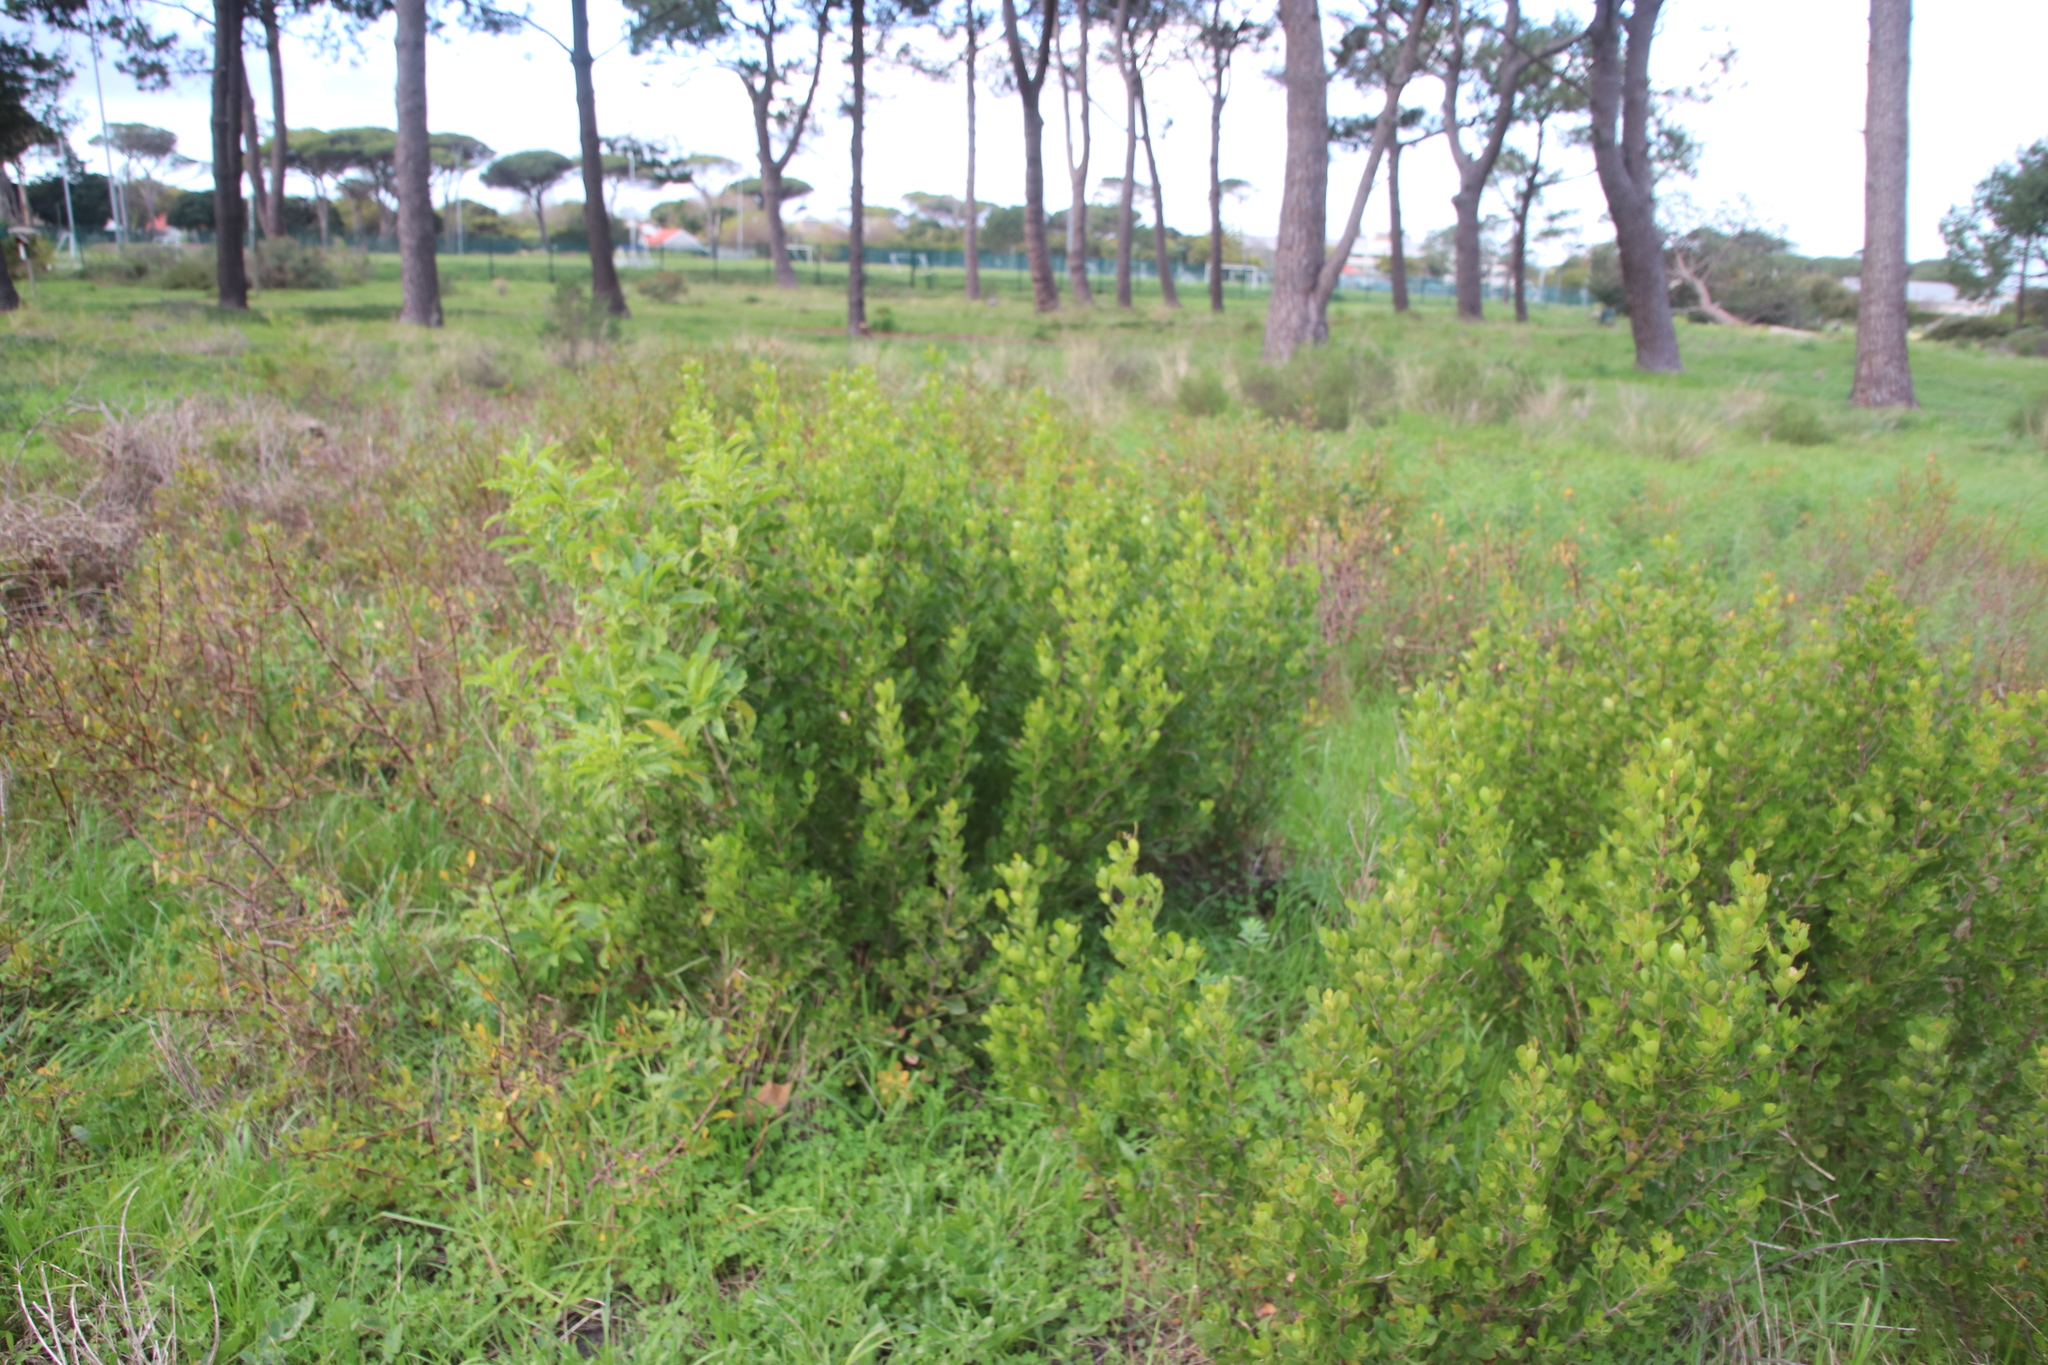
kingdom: Plantae
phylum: Tracheophyta
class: Magnoliopsida
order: Sapindales
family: Anacardiaceae
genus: Searsia
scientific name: Searsia lucida
